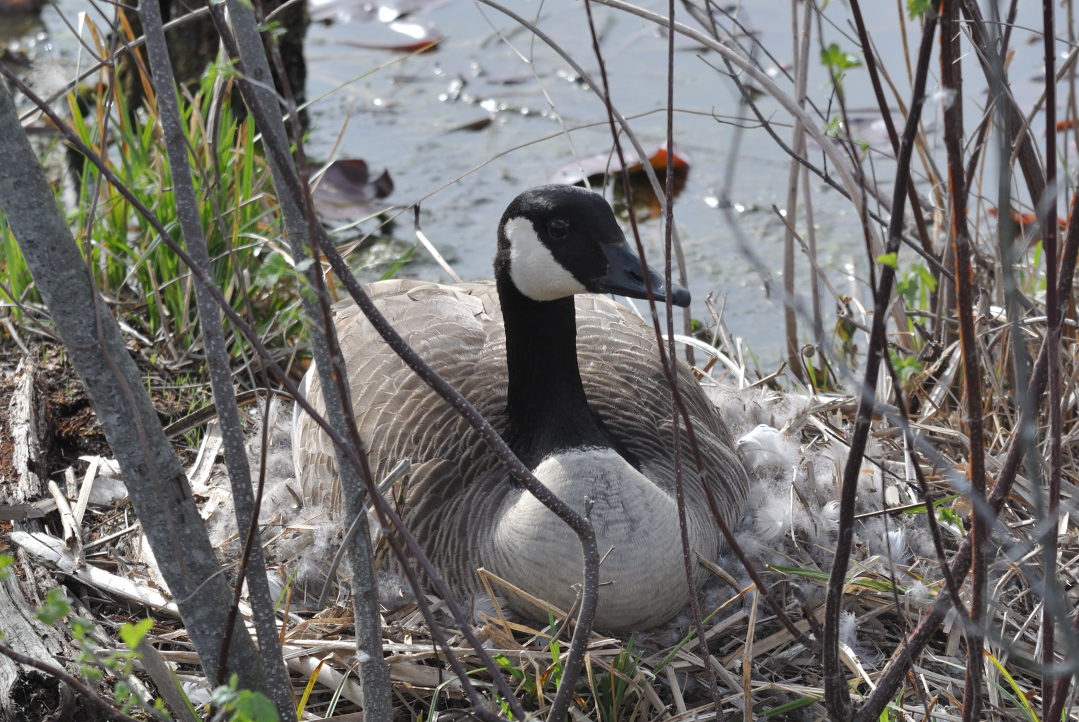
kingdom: Animalia
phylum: Chordata
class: Aves
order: Anseriformes
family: Anatidae
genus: Branta
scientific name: Branta canadensis
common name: Canada goose
